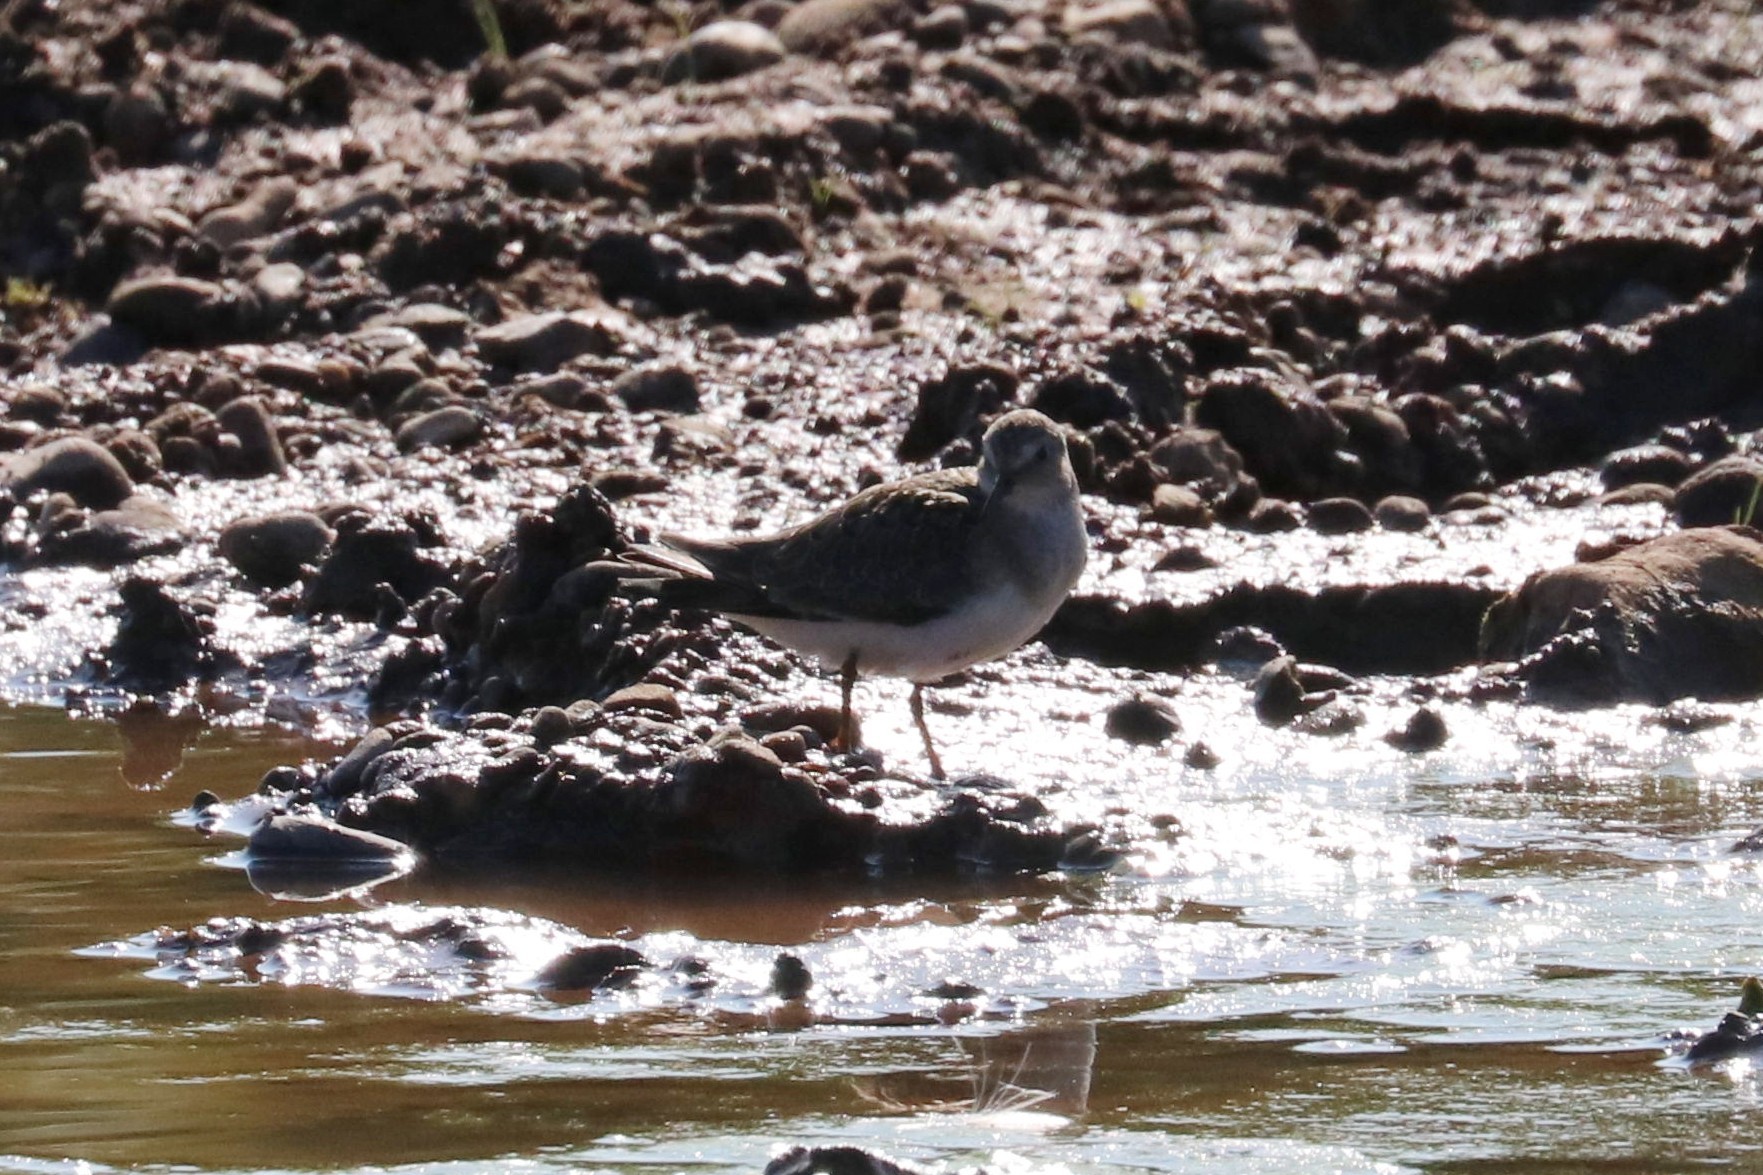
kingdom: Animalia
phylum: Chordata
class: Aves
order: Charadriiformes
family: Scolopacidae
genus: Calidris
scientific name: Calidris temminckii
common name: Temminck's stint
